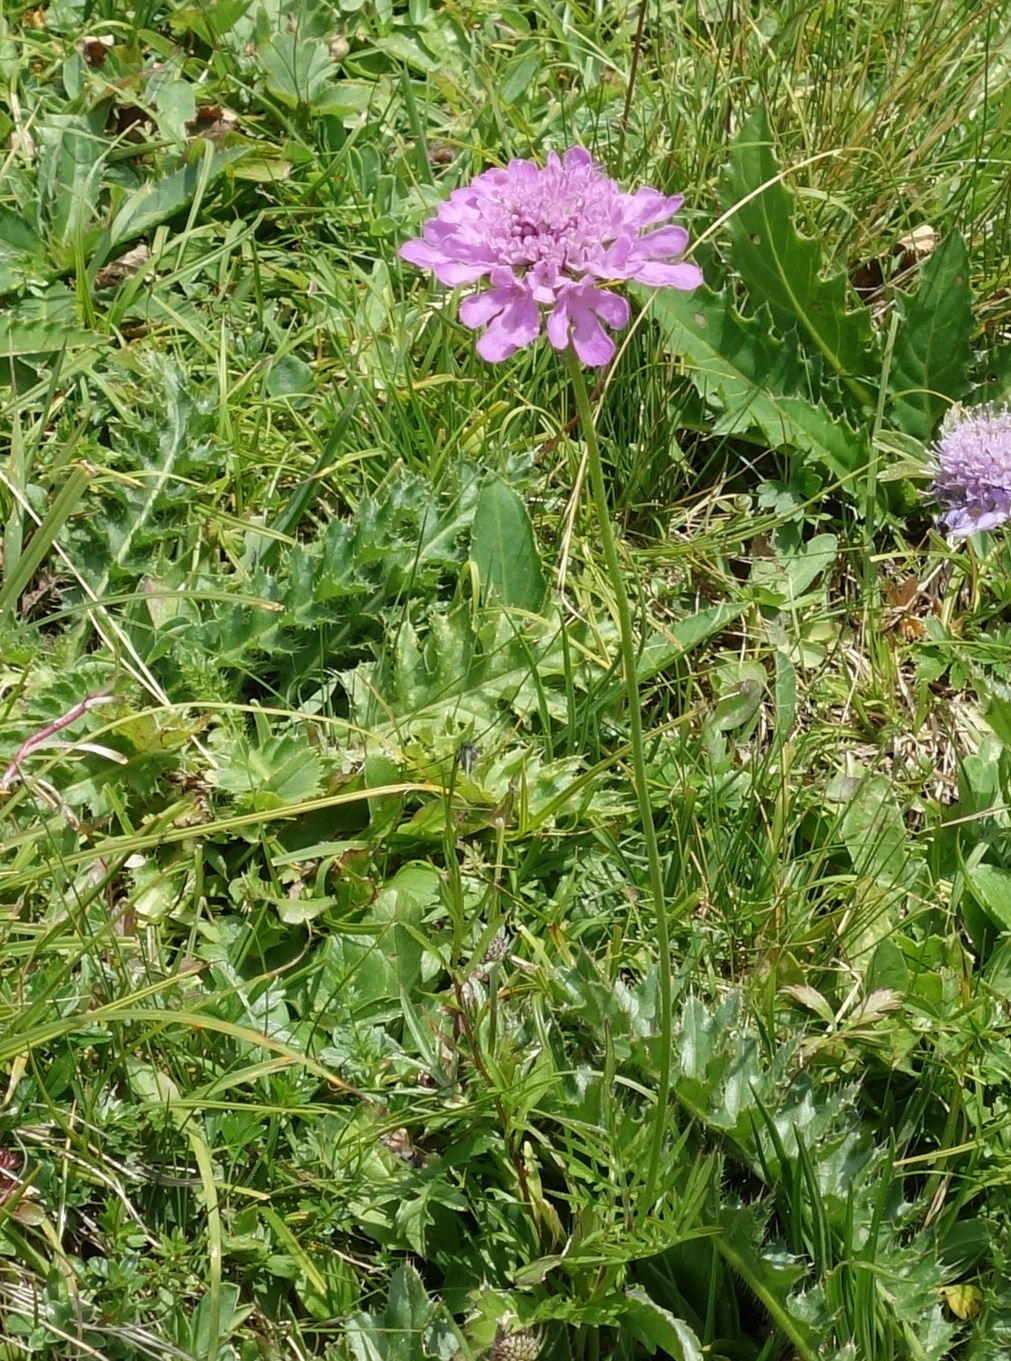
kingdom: Plantae
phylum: Tracheophyta
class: Magnoliopsida
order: Dipsacales
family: Caprifoliaceae
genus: Scabiosa
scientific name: Scabiosa lucida
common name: Shining scabious
